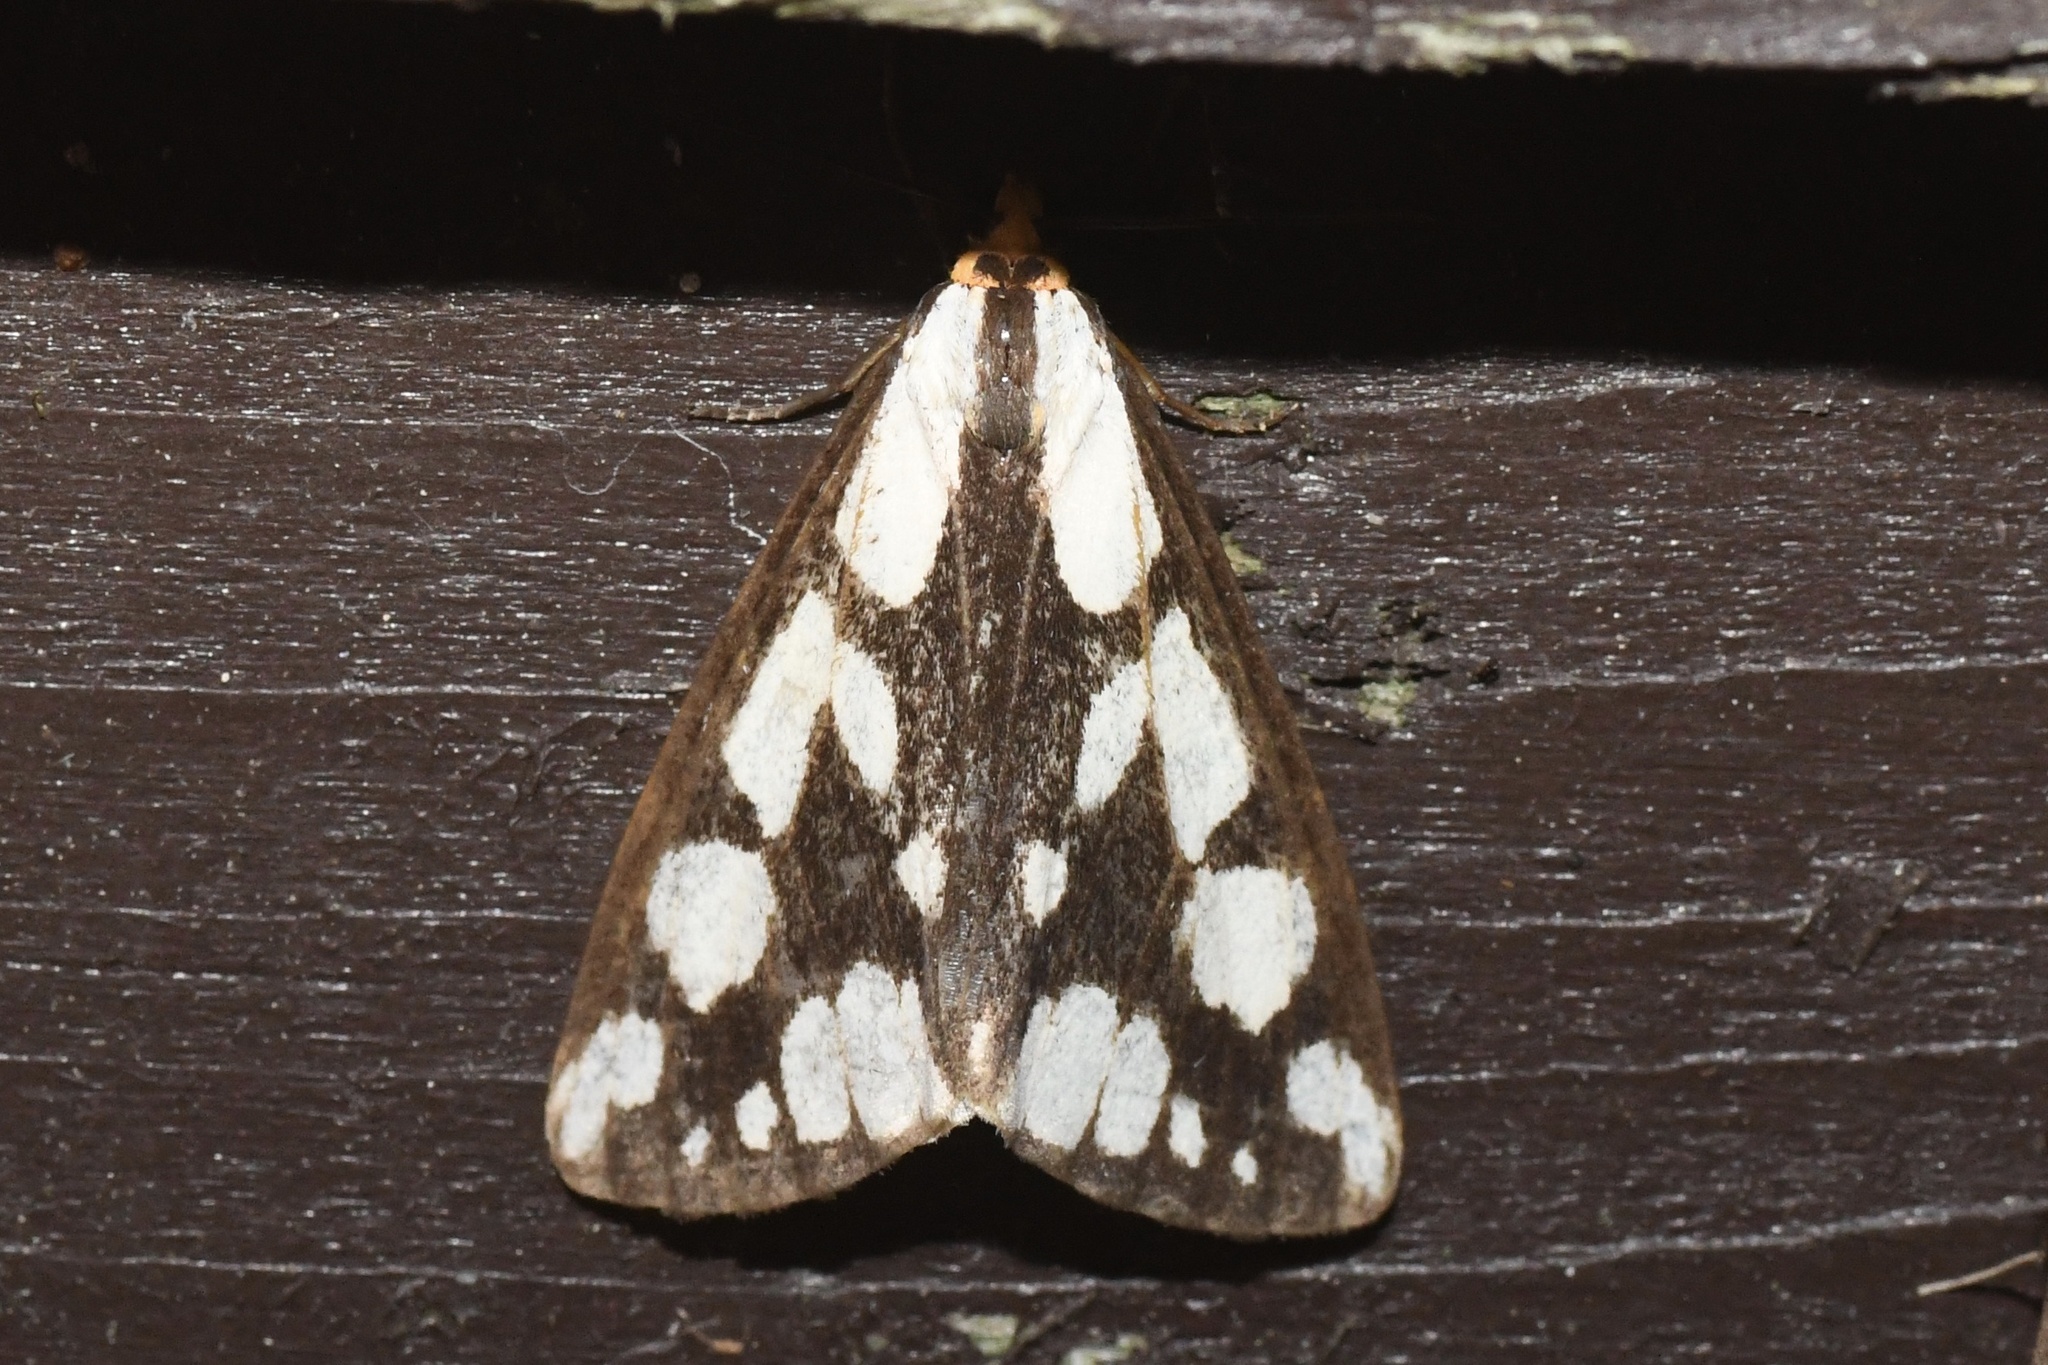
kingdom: Animalia
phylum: Arthropoda
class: Insecta
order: Lepidoptera
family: Erebidae
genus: Haploa
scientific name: Haploa confusa
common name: Confused haploa moth
